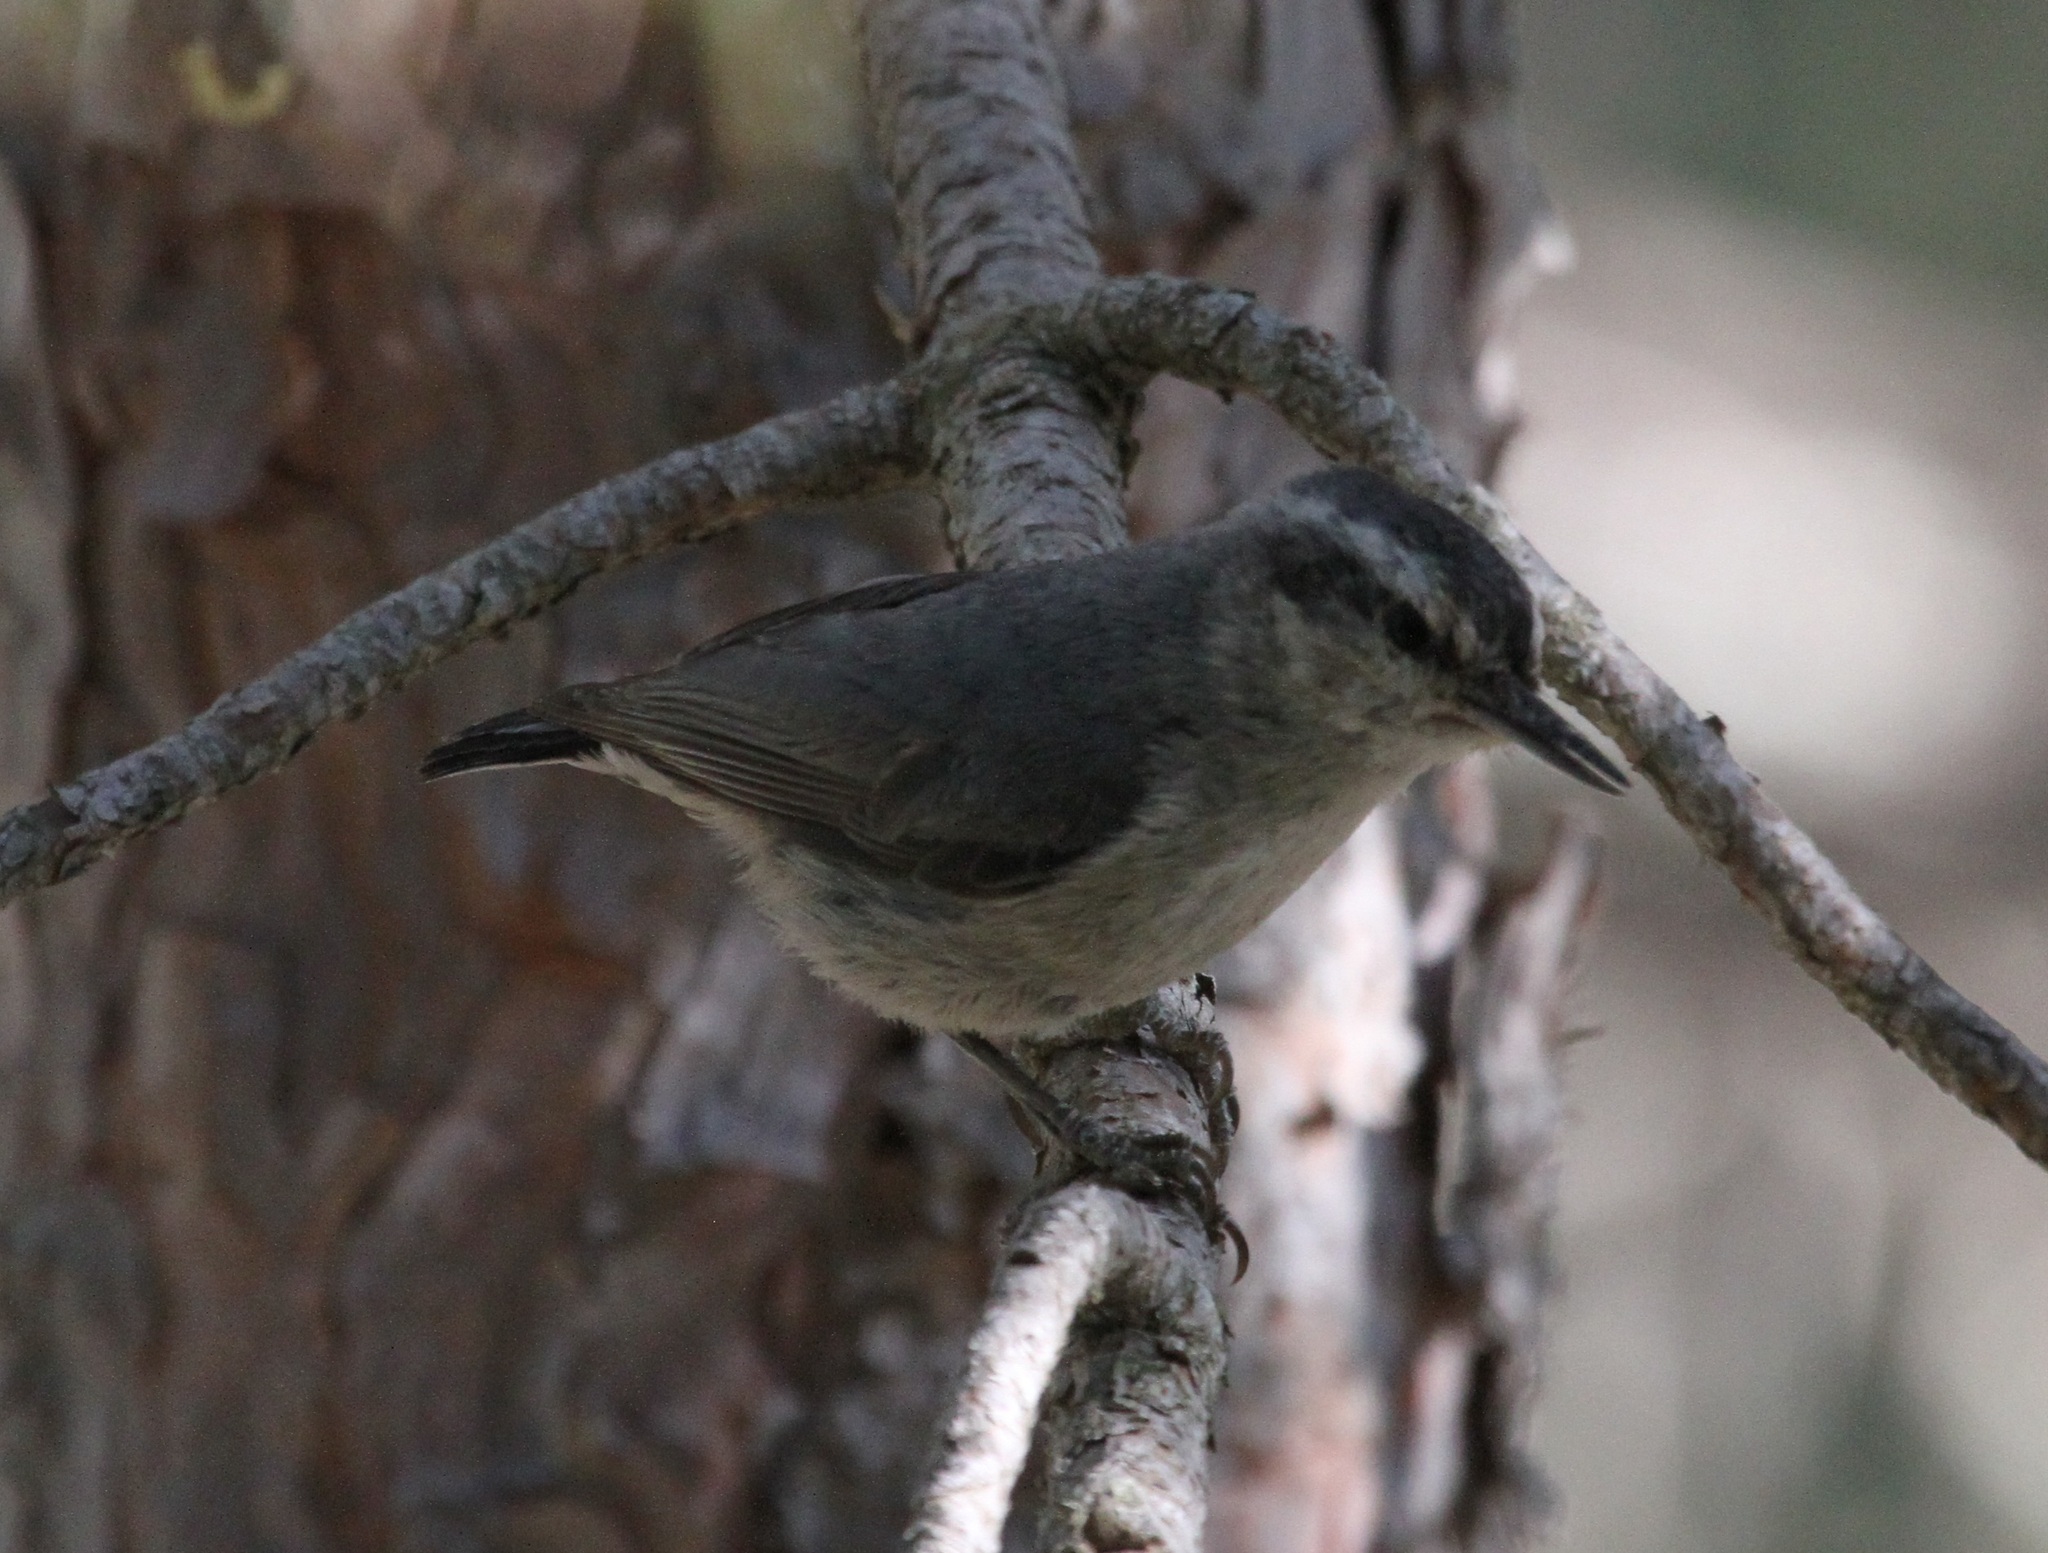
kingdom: Animalia
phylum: Chordata
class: Aves
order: Passeriformes
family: Sittidae
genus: Sitta
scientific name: Sitta whiteheadi
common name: Corsican nuthatch
